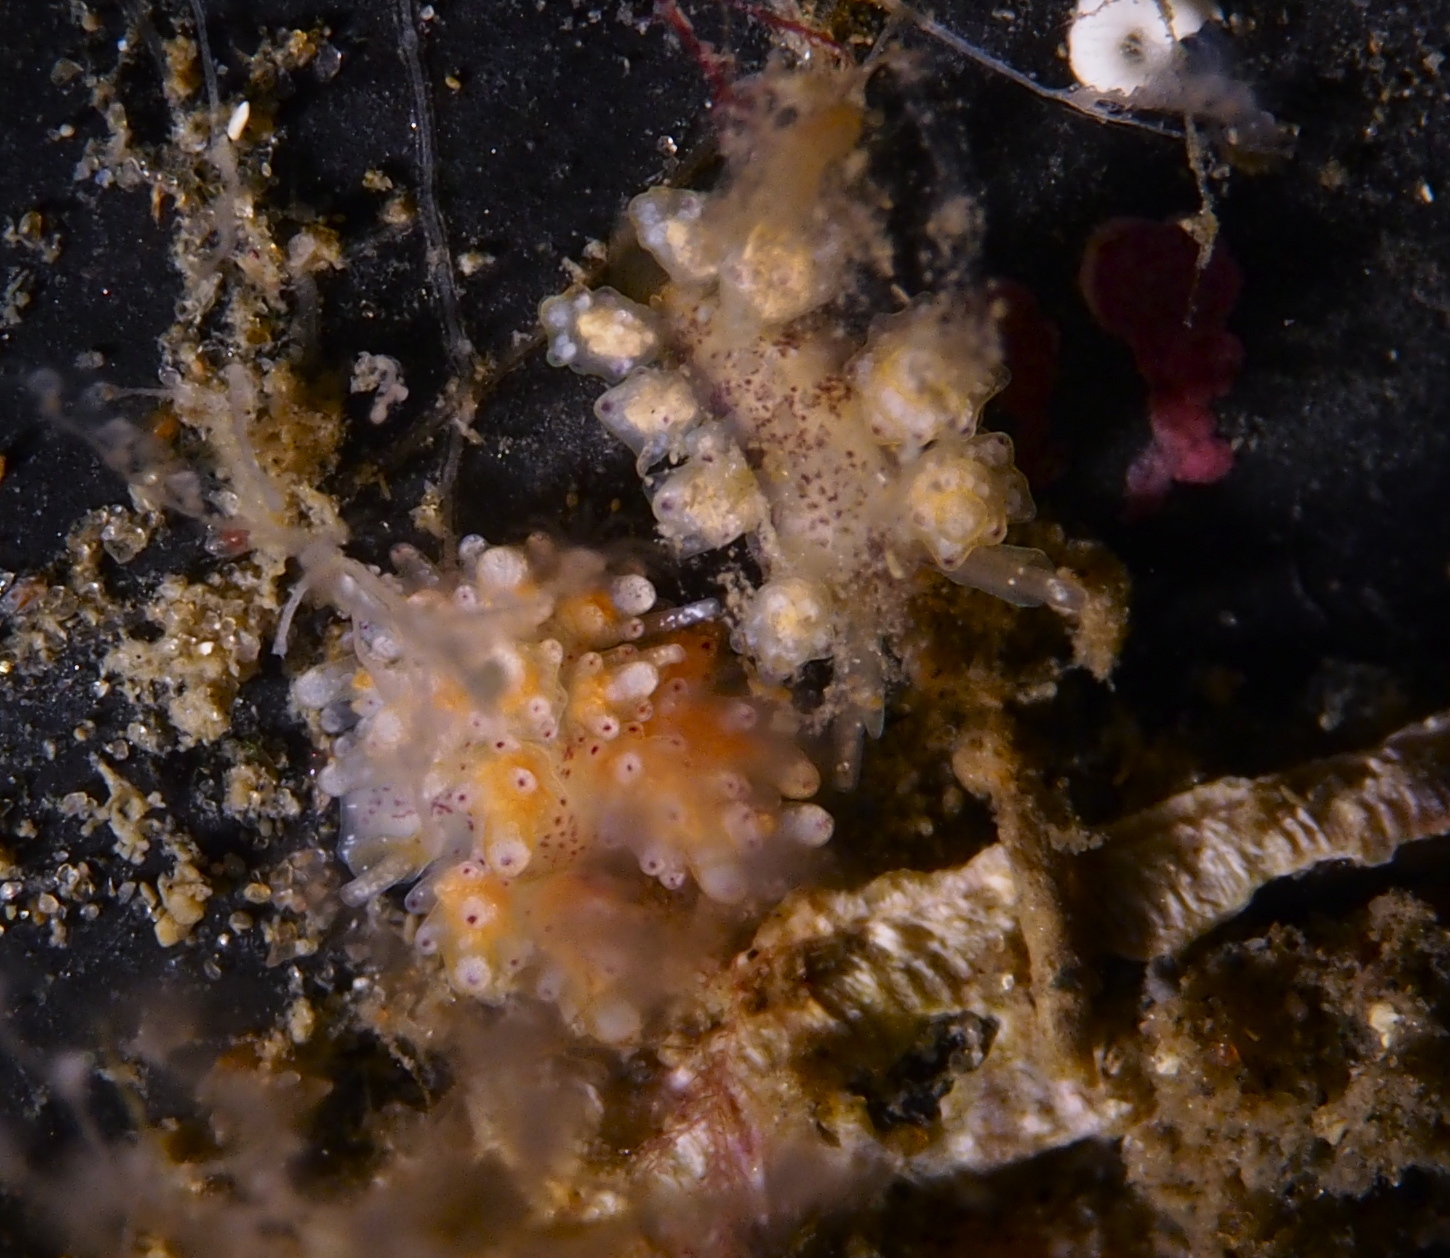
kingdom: Animalia
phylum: Mollusca
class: Gastropoda
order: Nudibranchia
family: Dotidae
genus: Doto
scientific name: Doto maculata
